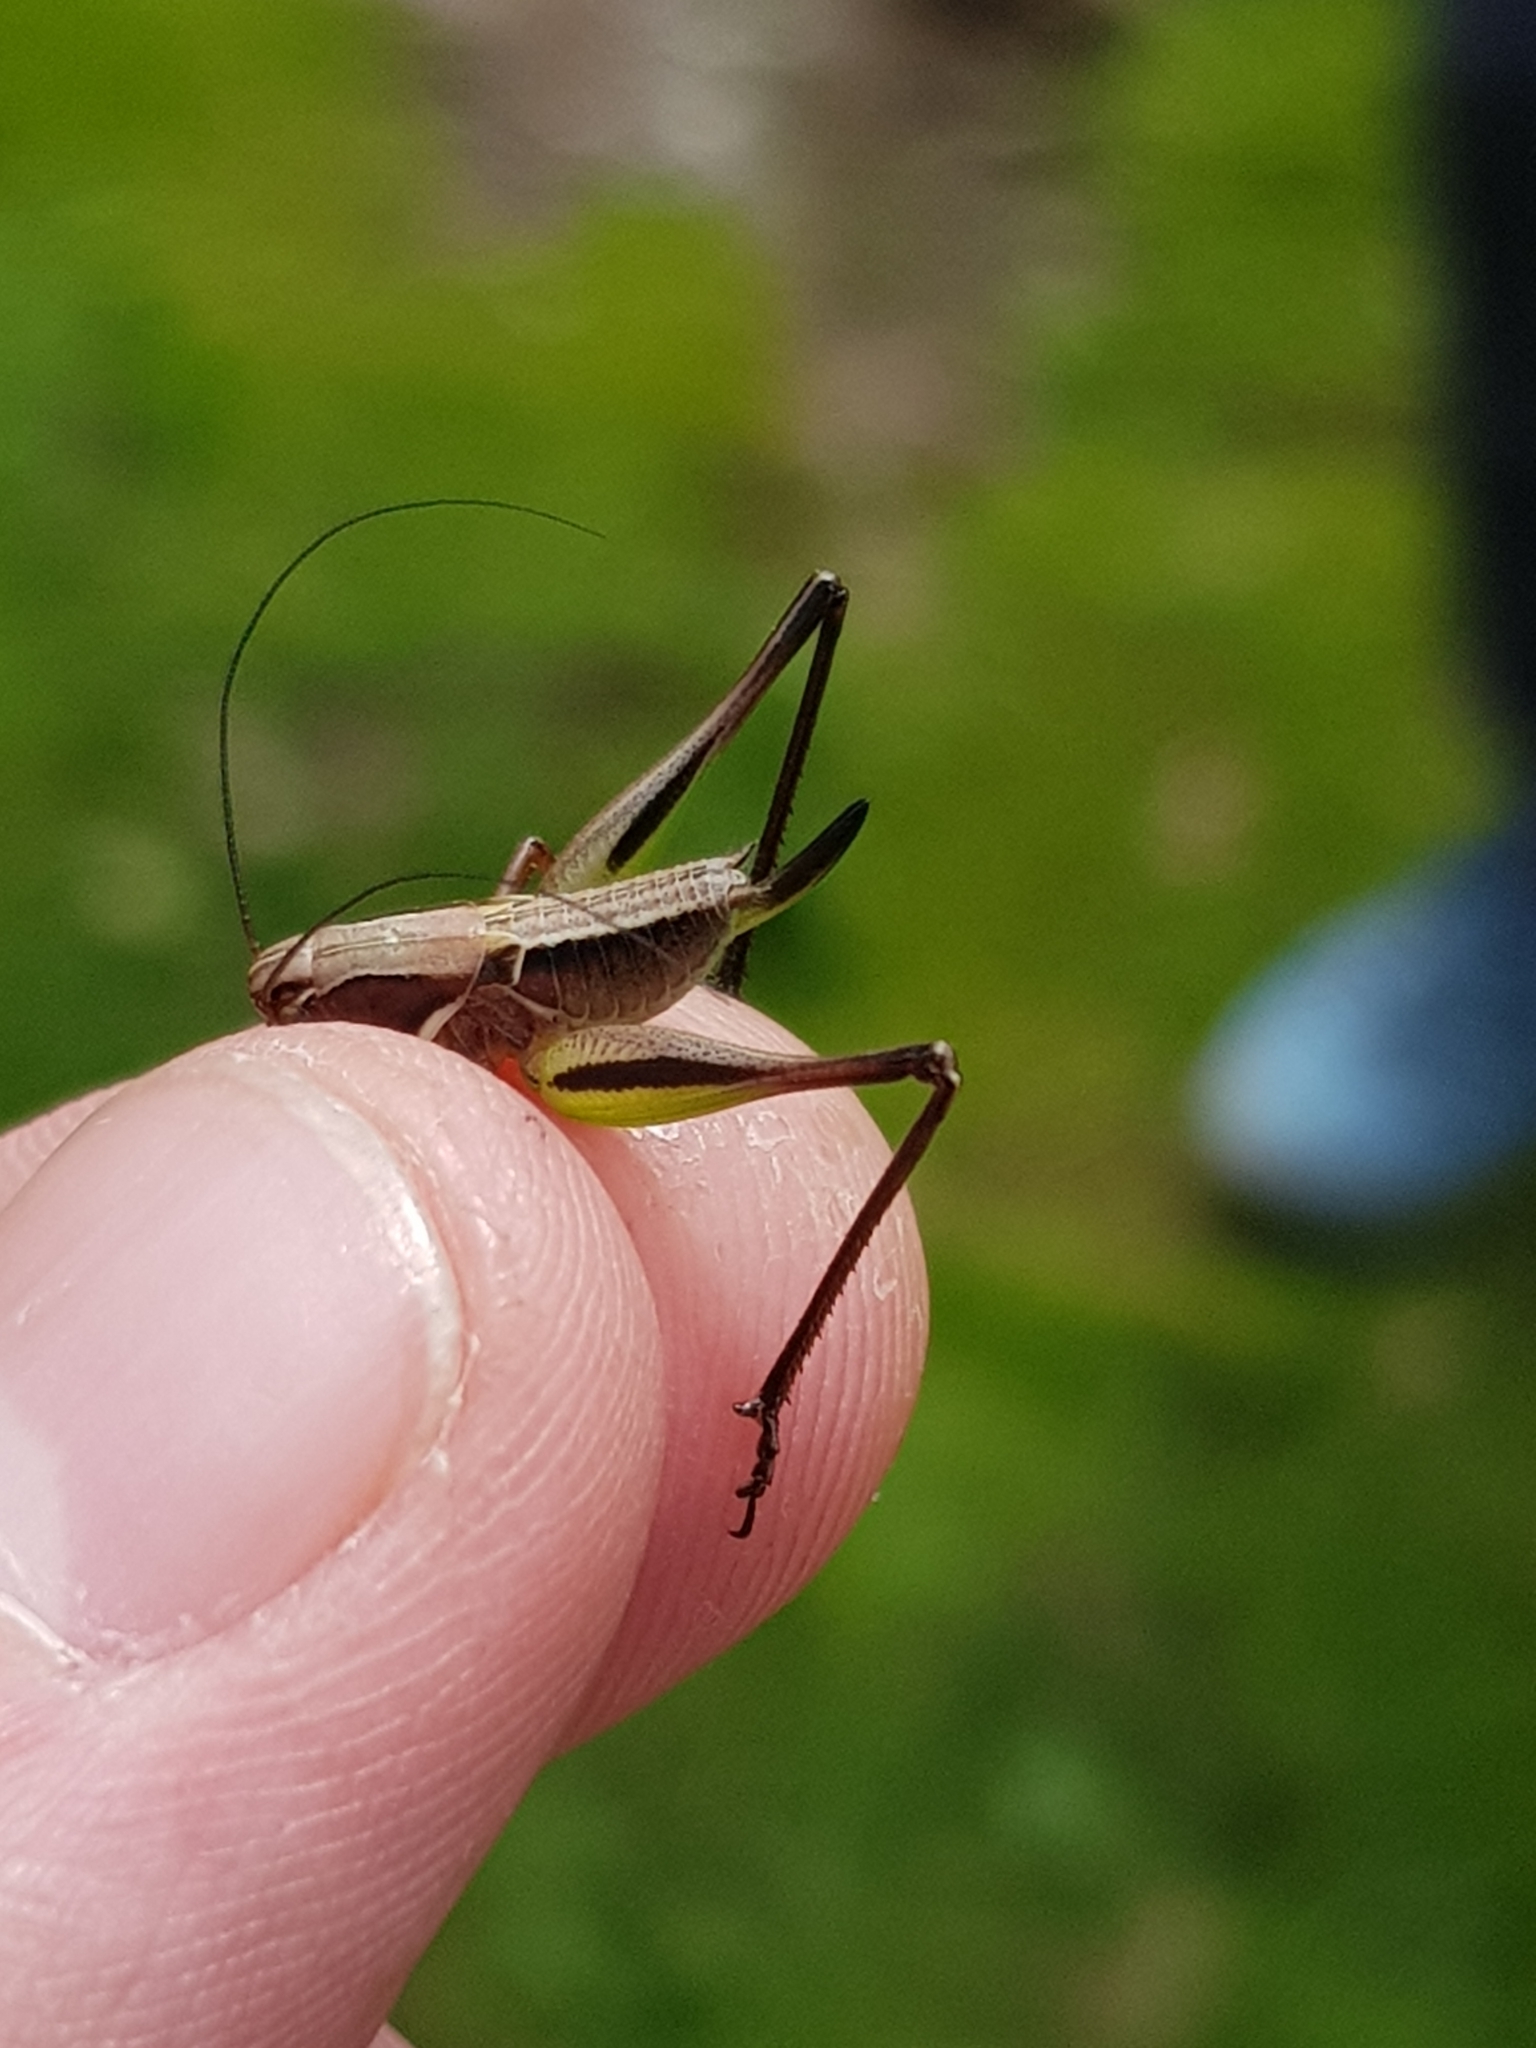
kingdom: Animalia
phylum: Arthropoda
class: Insecta
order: Orthoptera
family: Tettigoniidae
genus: Metrioptera
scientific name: Metrioptera brachyptera
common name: Bog bush-cricket
